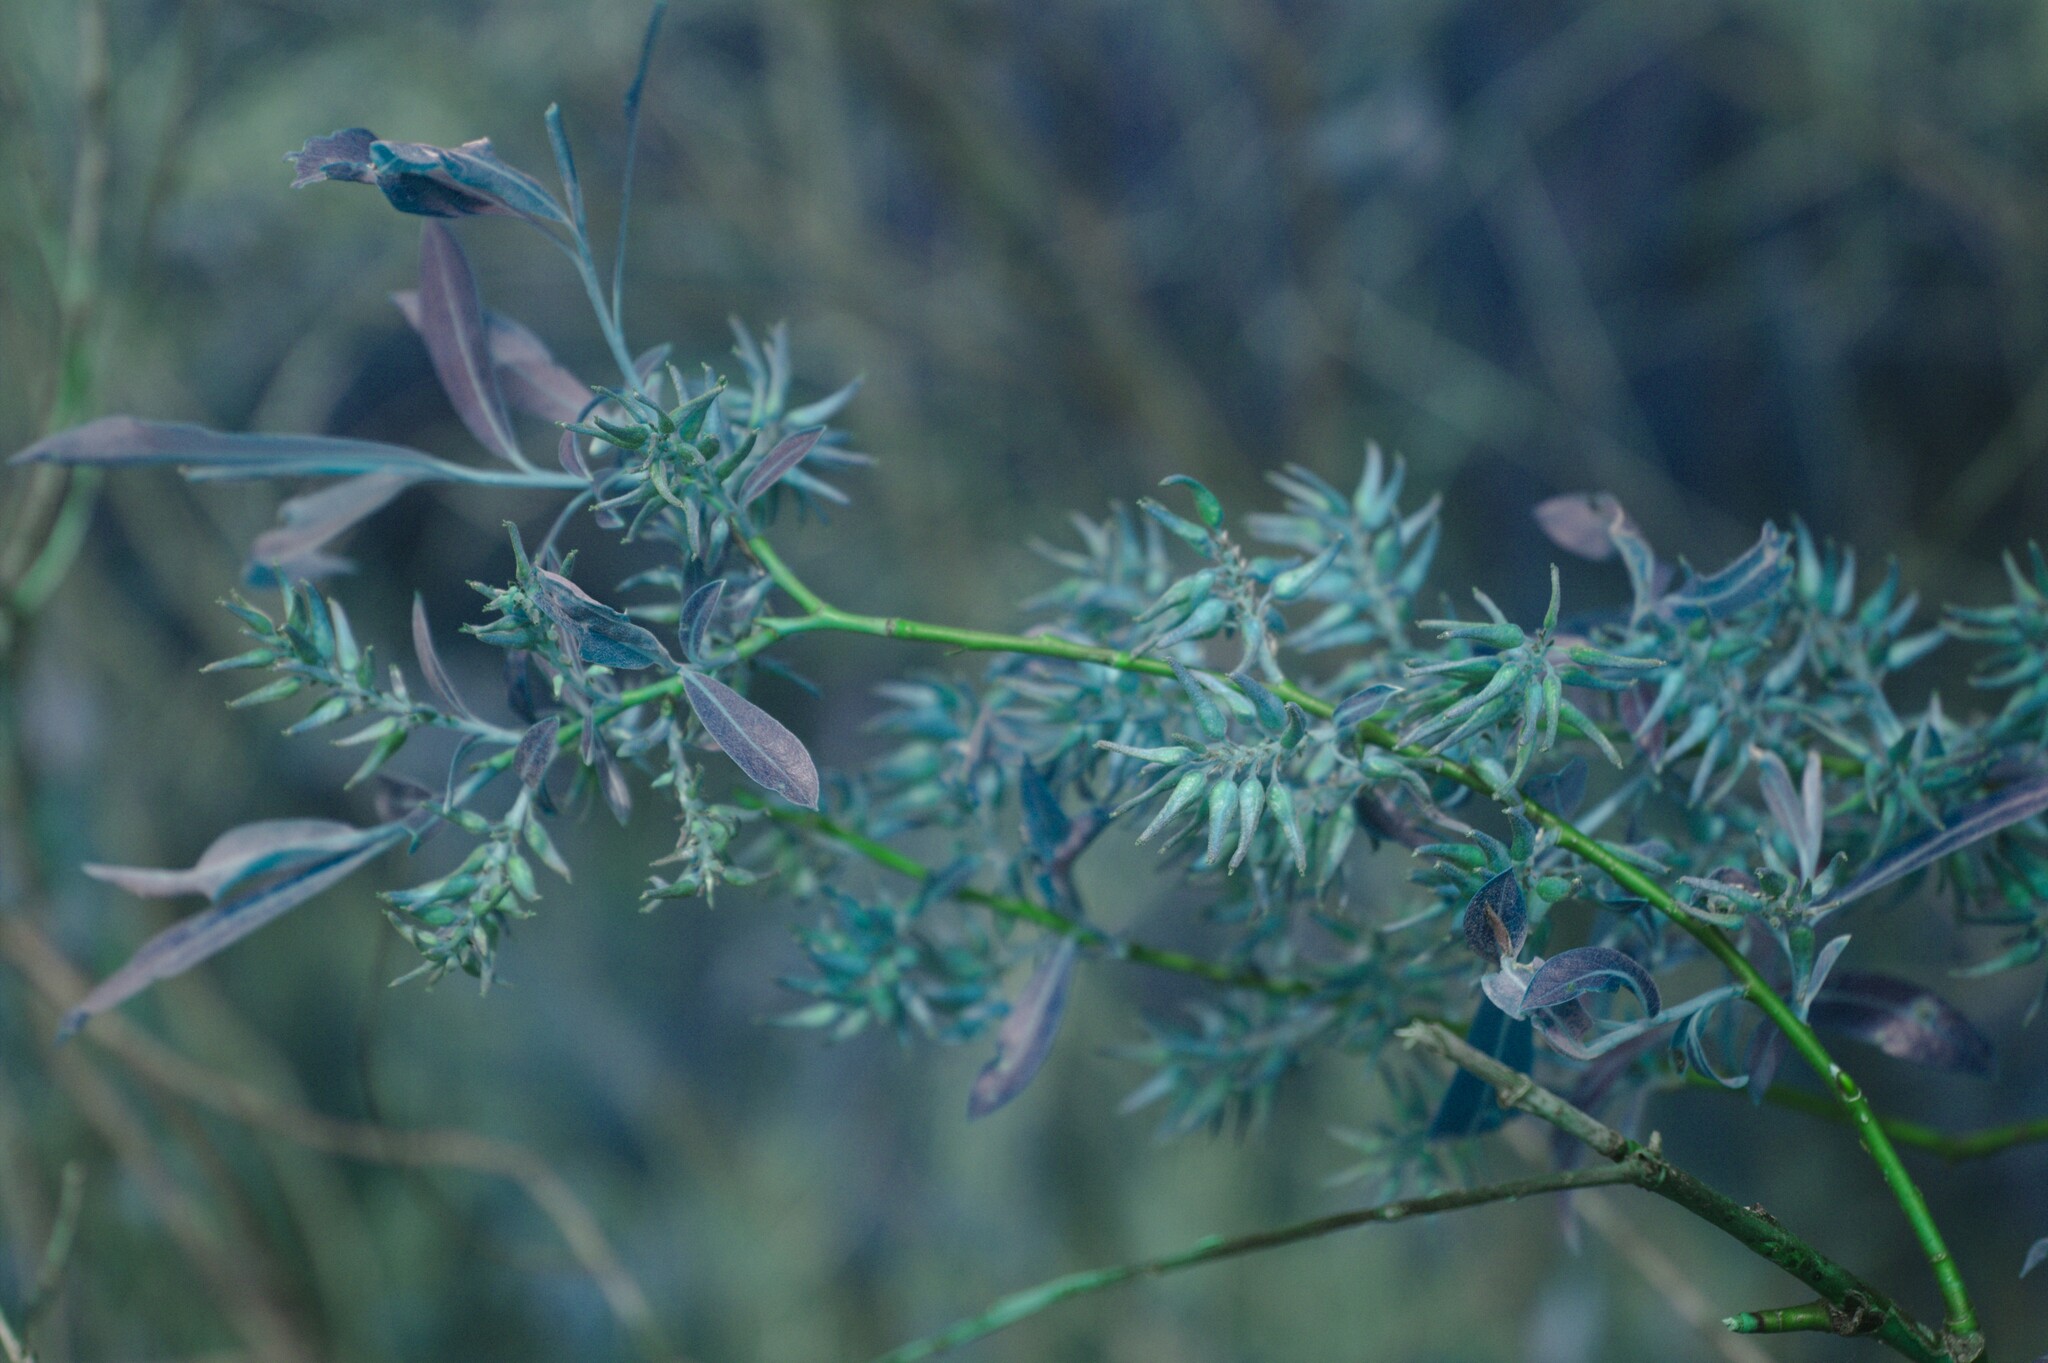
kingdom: Plantae
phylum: Tracheophyta
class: Magnoliopsida
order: Malpighiales
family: Salicaceae
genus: Salix
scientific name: Salix petiolaris
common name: Slender willow
